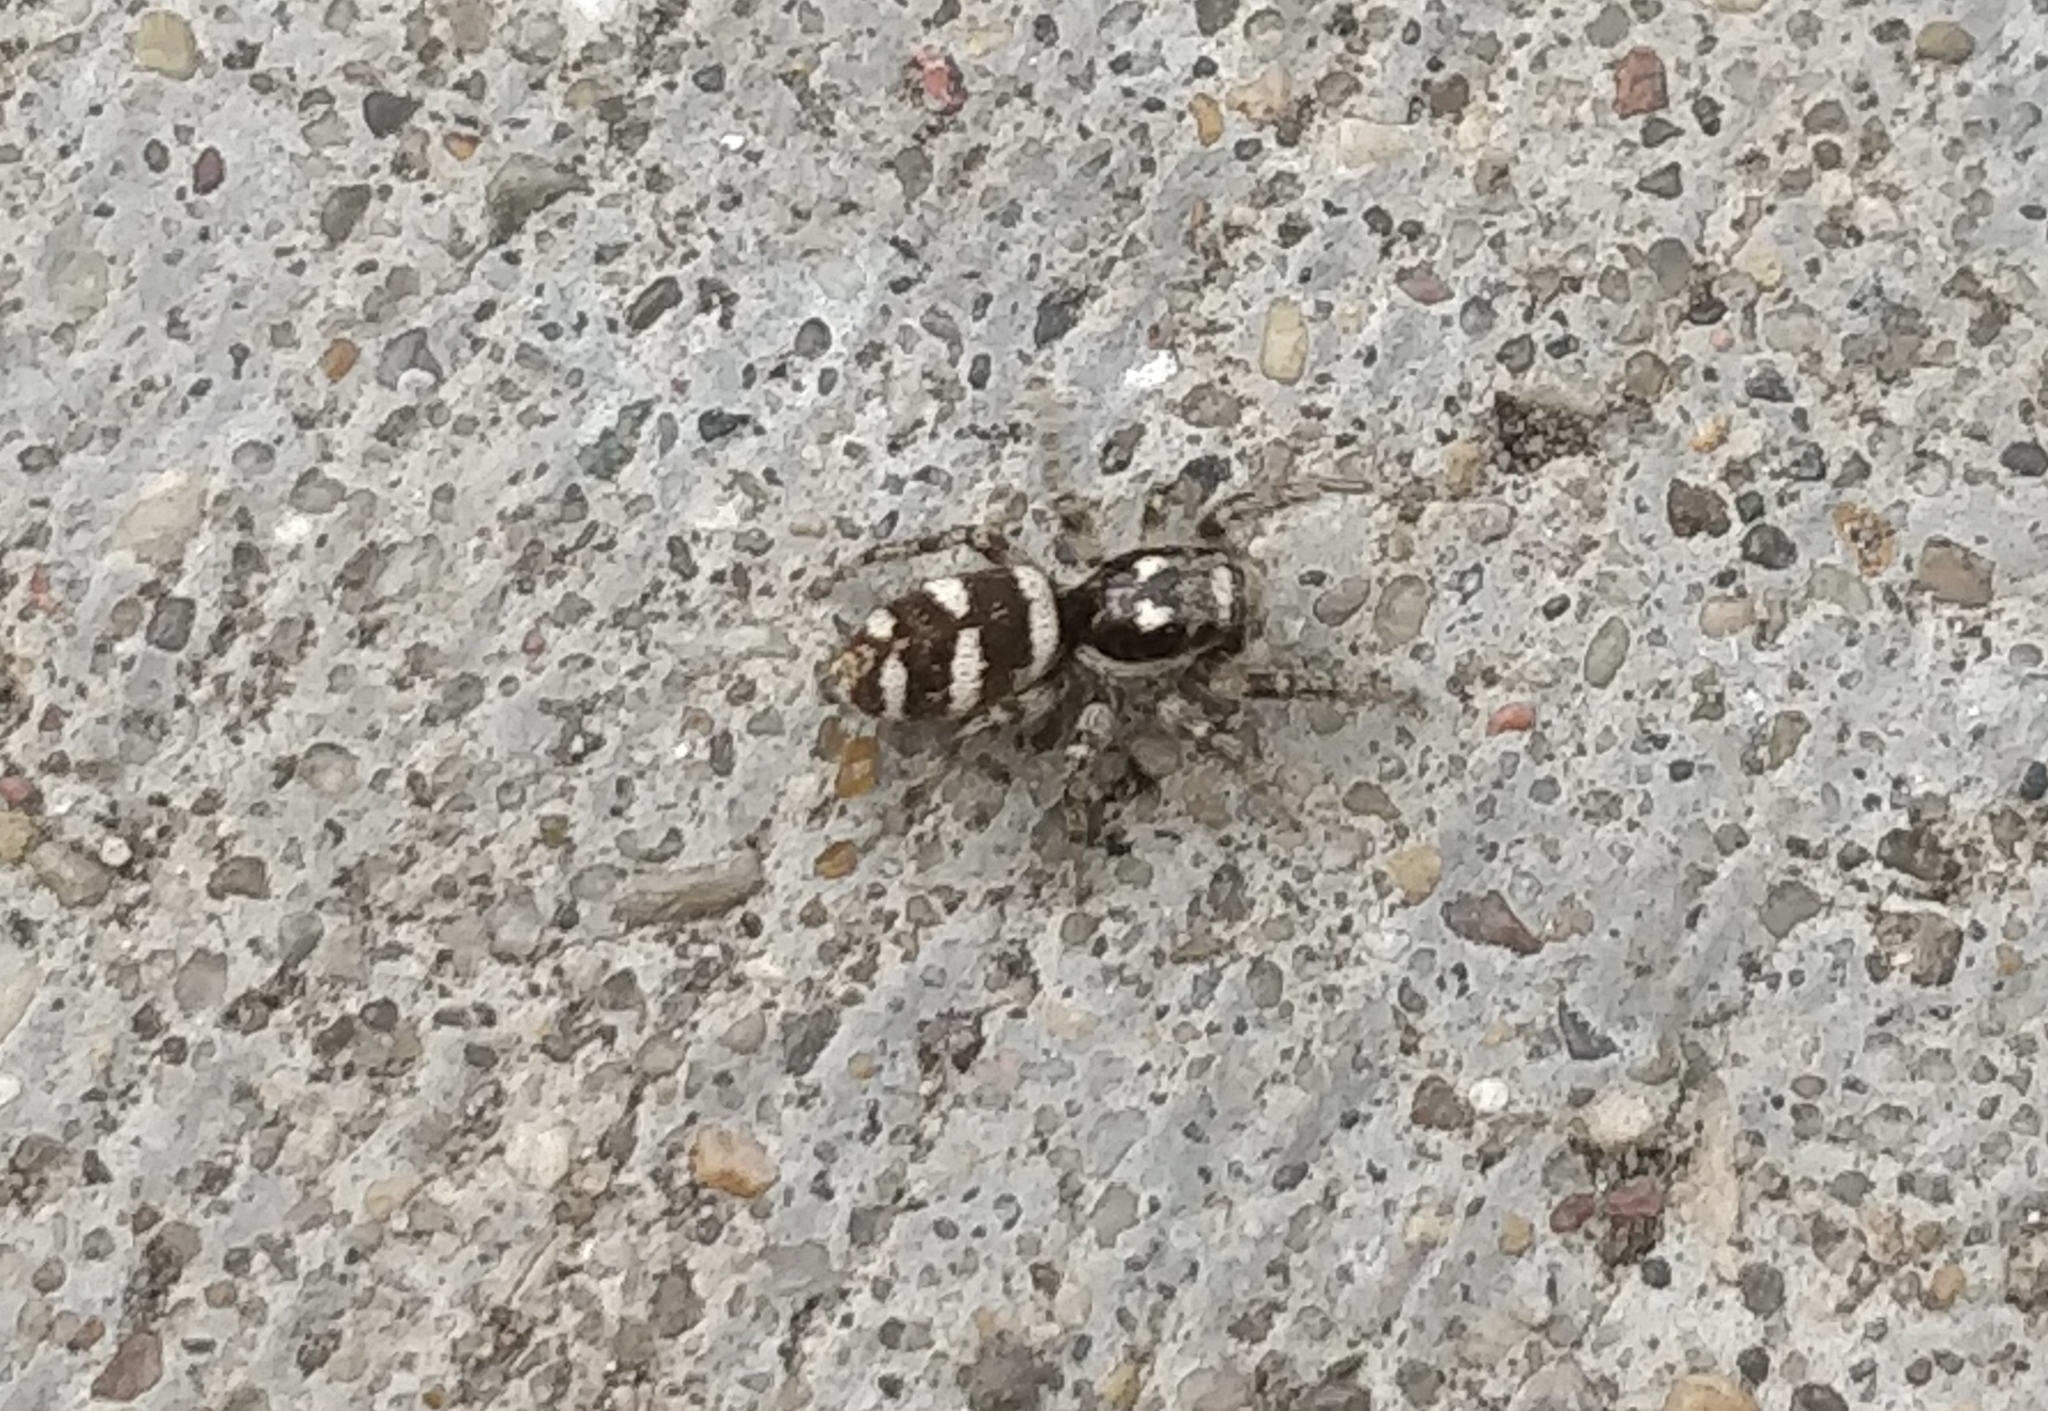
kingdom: Animalia
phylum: Arthropoda
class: Arachnida
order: Araneae
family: Salticidae
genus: Salticus
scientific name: Salticus scenicus
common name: Zebra jumper
